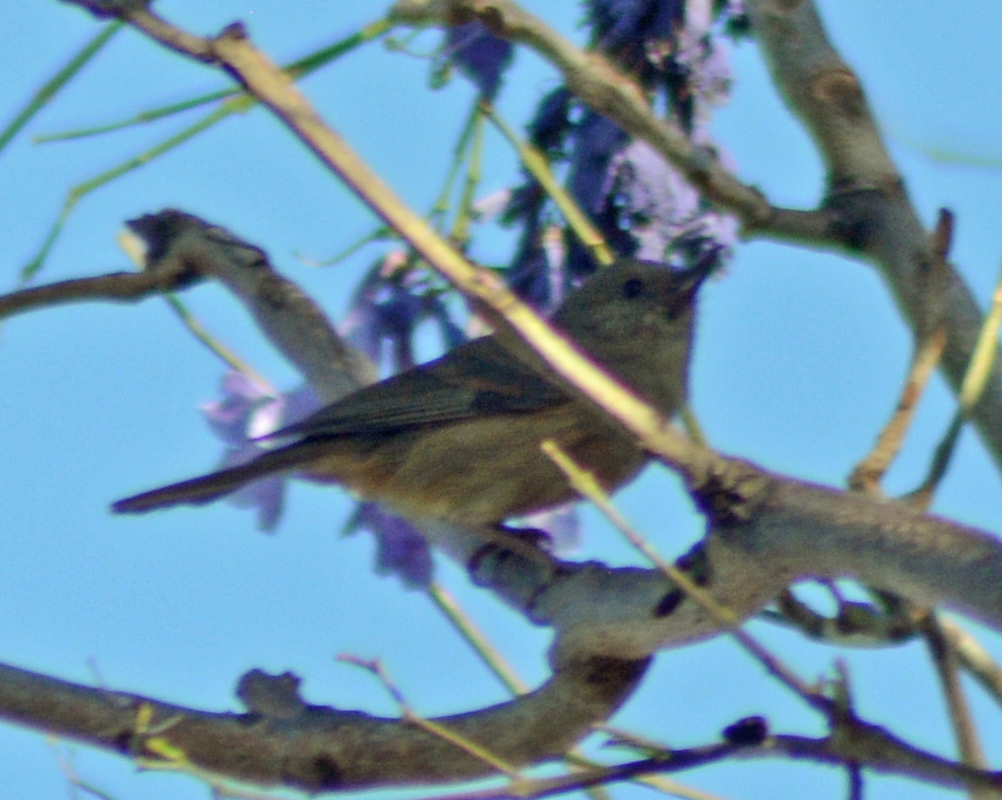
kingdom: Animalia
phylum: Chordata
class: Aves
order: Passeriformes
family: Thraupidae
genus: Diglossa
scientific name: Diglossa baritula
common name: Cinnamon-bellied flowerpiercer
